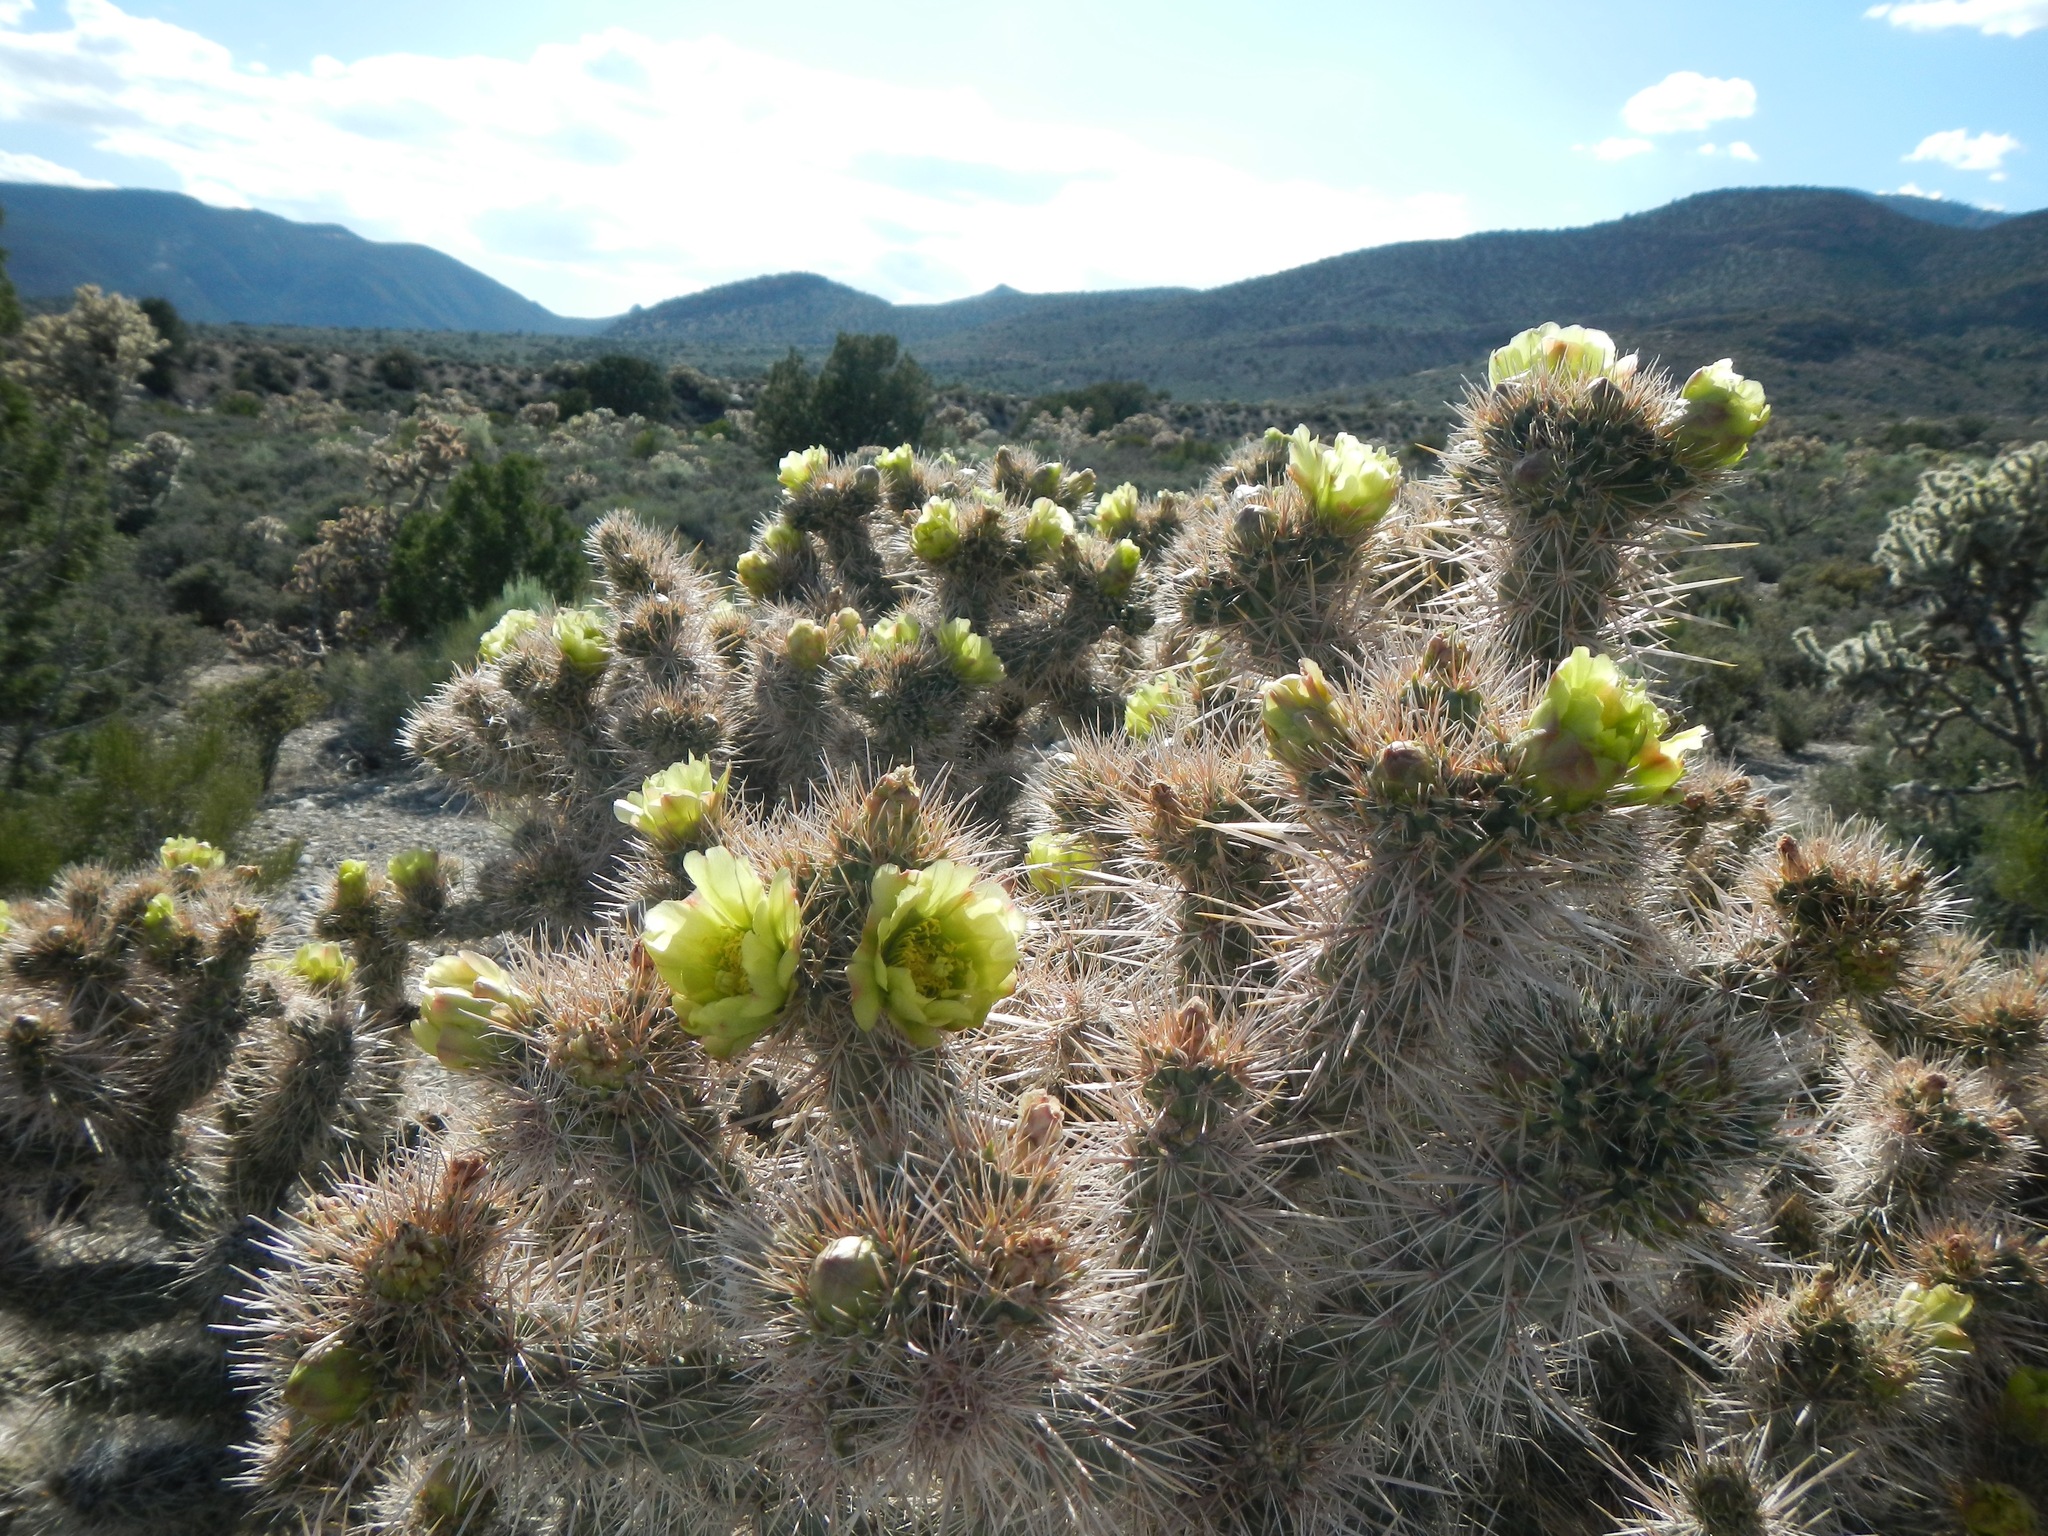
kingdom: Plantae
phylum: Tracheophyta
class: Magnoliopsida
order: Caryophyllales
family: Cactaceae
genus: Cylindropuntia
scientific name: Cylindropuntia echinocarpa
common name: Ground cholla
